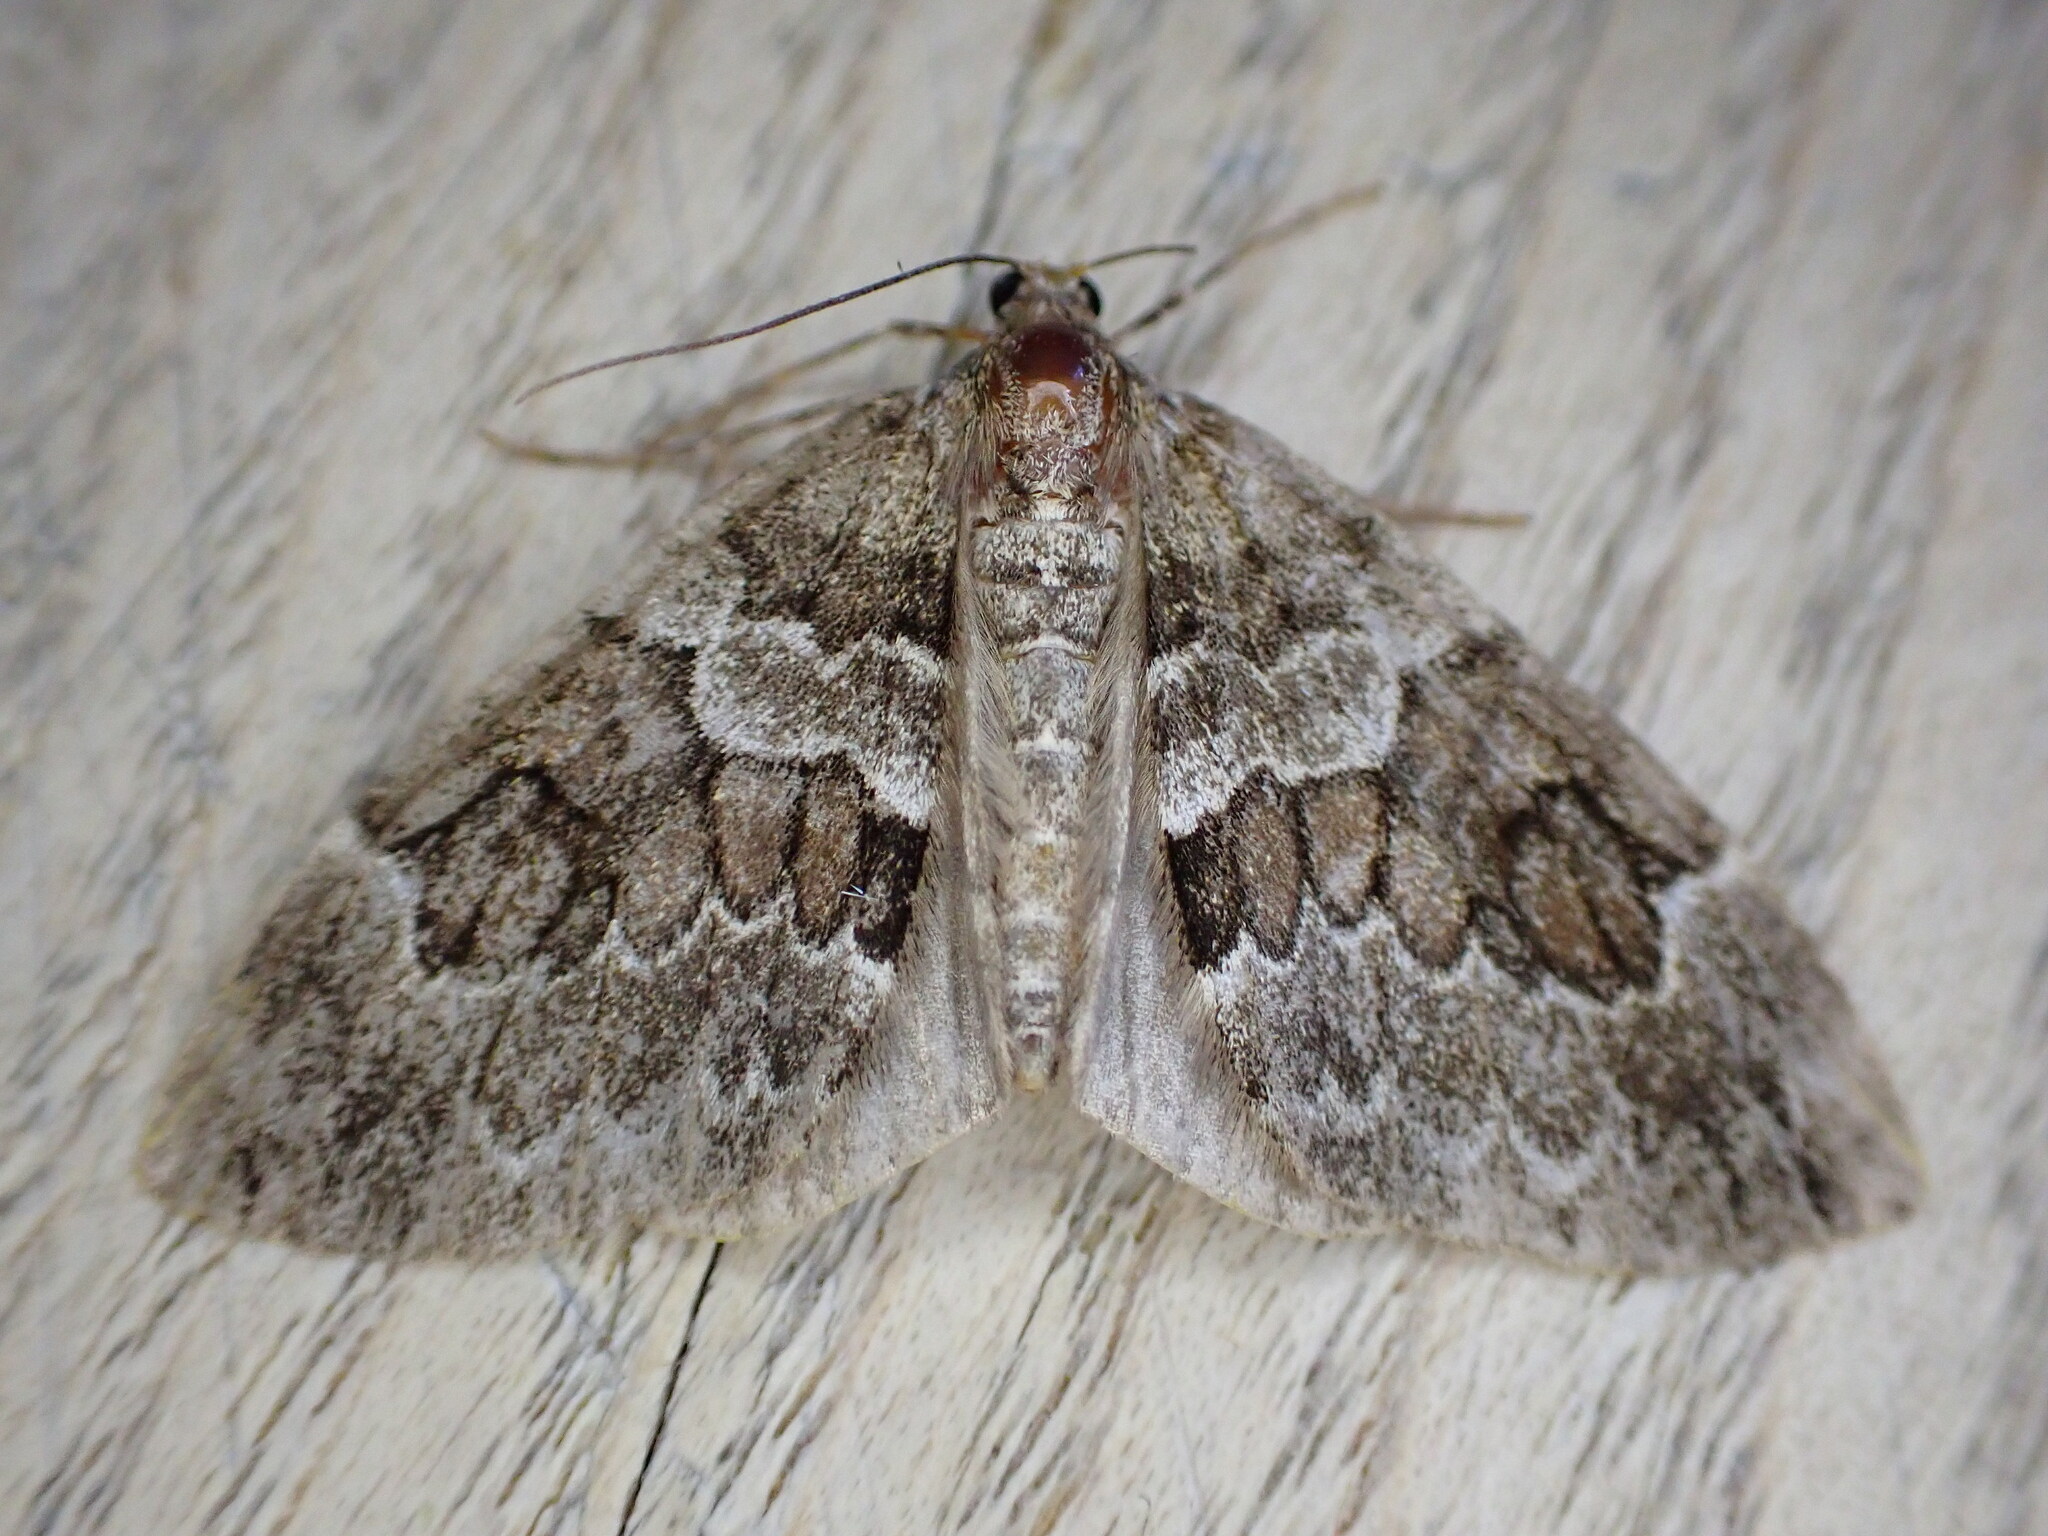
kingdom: Animalia
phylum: Arthropoda
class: Insecta
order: Lepidoptera
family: Geometridae
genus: Thera
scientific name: Thera britannica
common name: Spruce carpet
